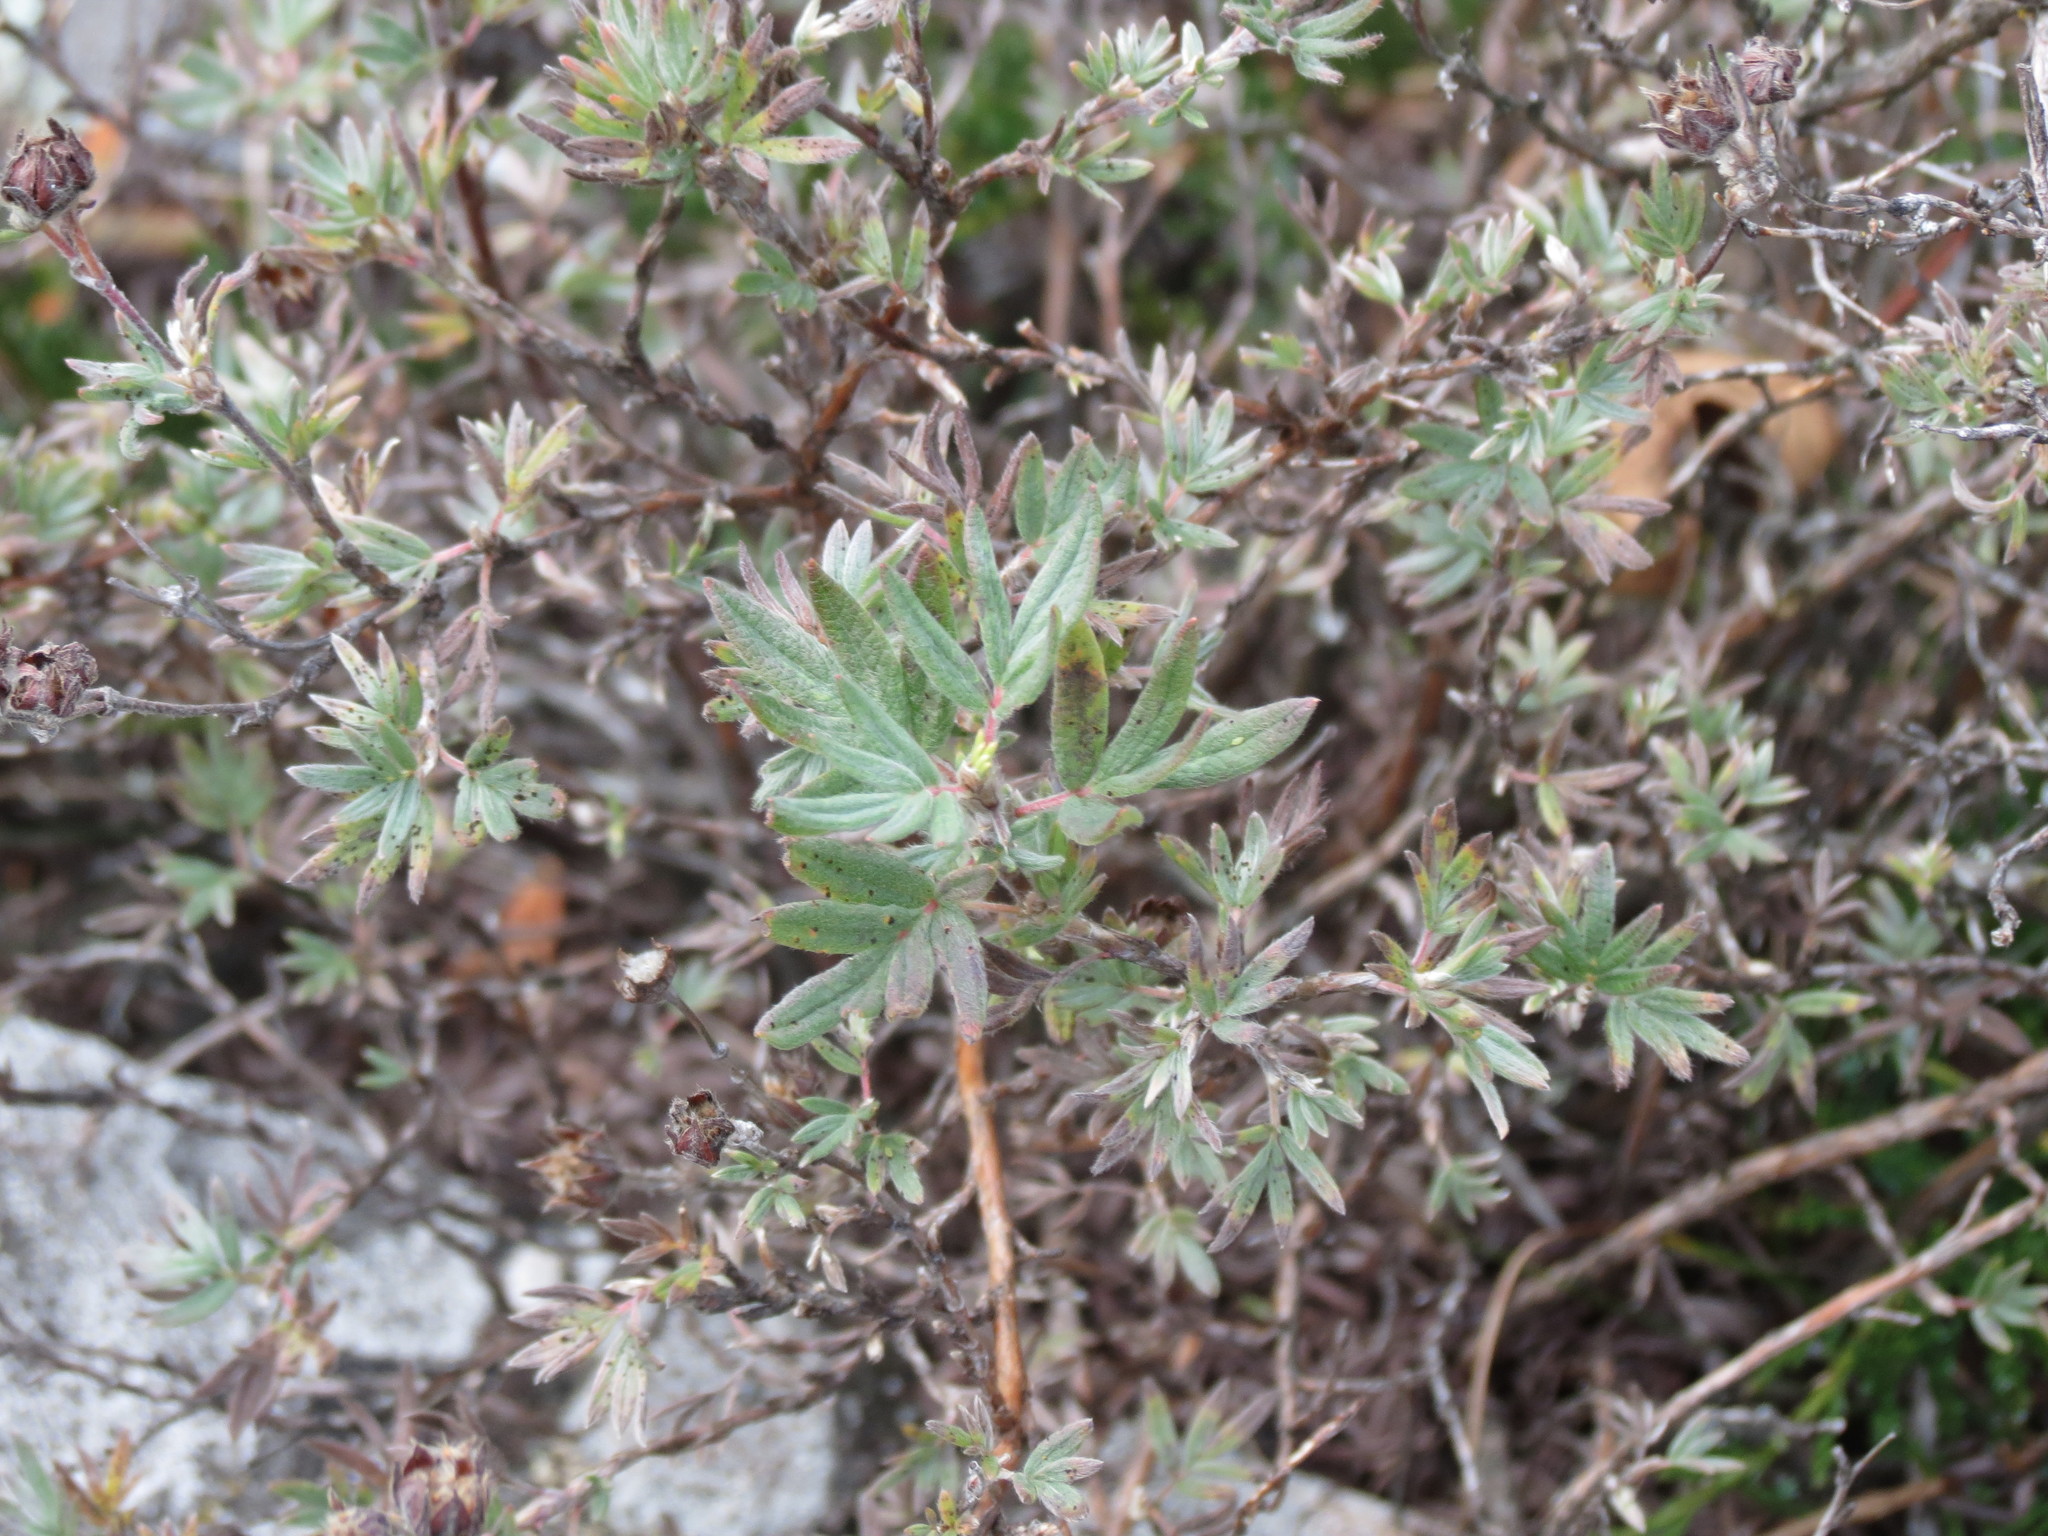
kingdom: Plantae
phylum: Tracheophyta
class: Magnoliopsida
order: Rosales
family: Rosaceae
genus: Dasiphora
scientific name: Dasiphora fruticosa
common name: Shrubby cinquefoil
